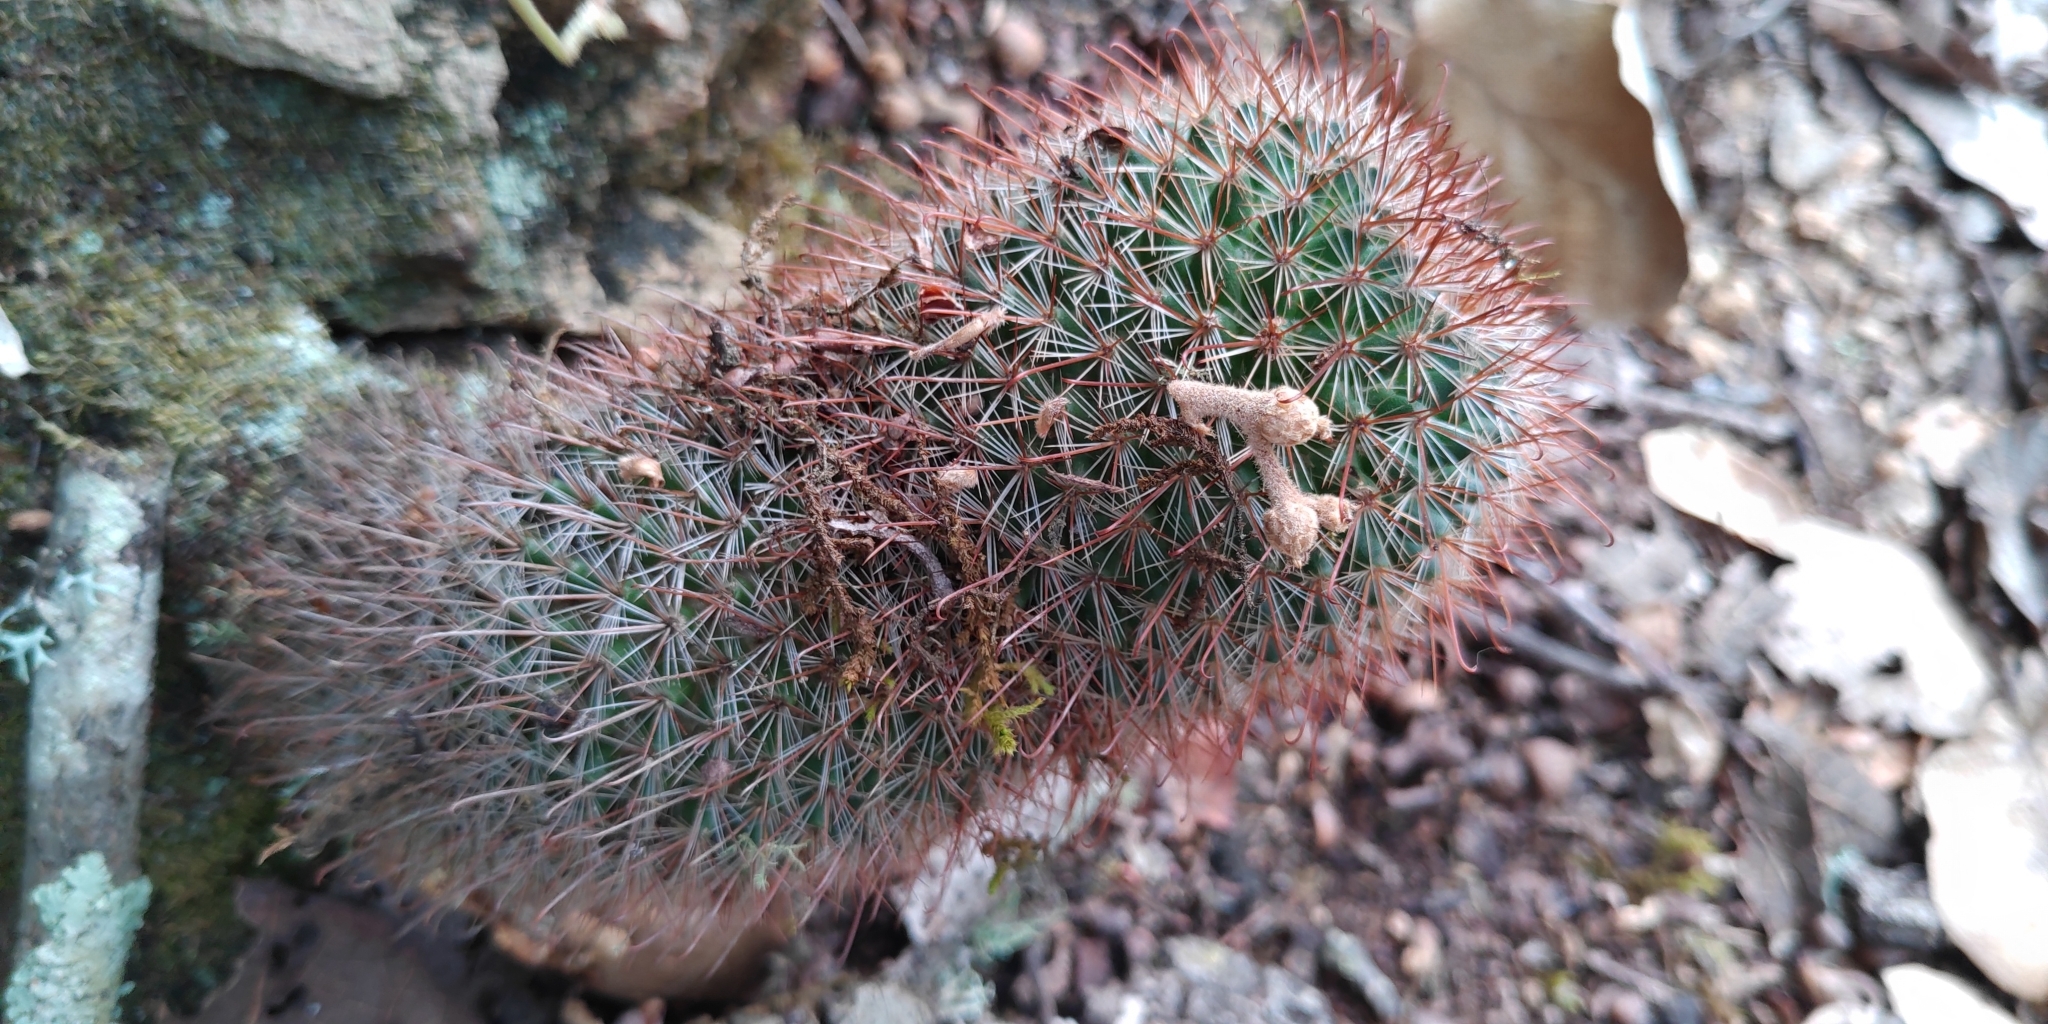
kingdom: Plantae
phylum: Tracheophyta
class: Magnoliopsida
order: Caryophyllales
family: Cactaceae
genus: Mammillaria
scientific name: Mammillaria rekoi
